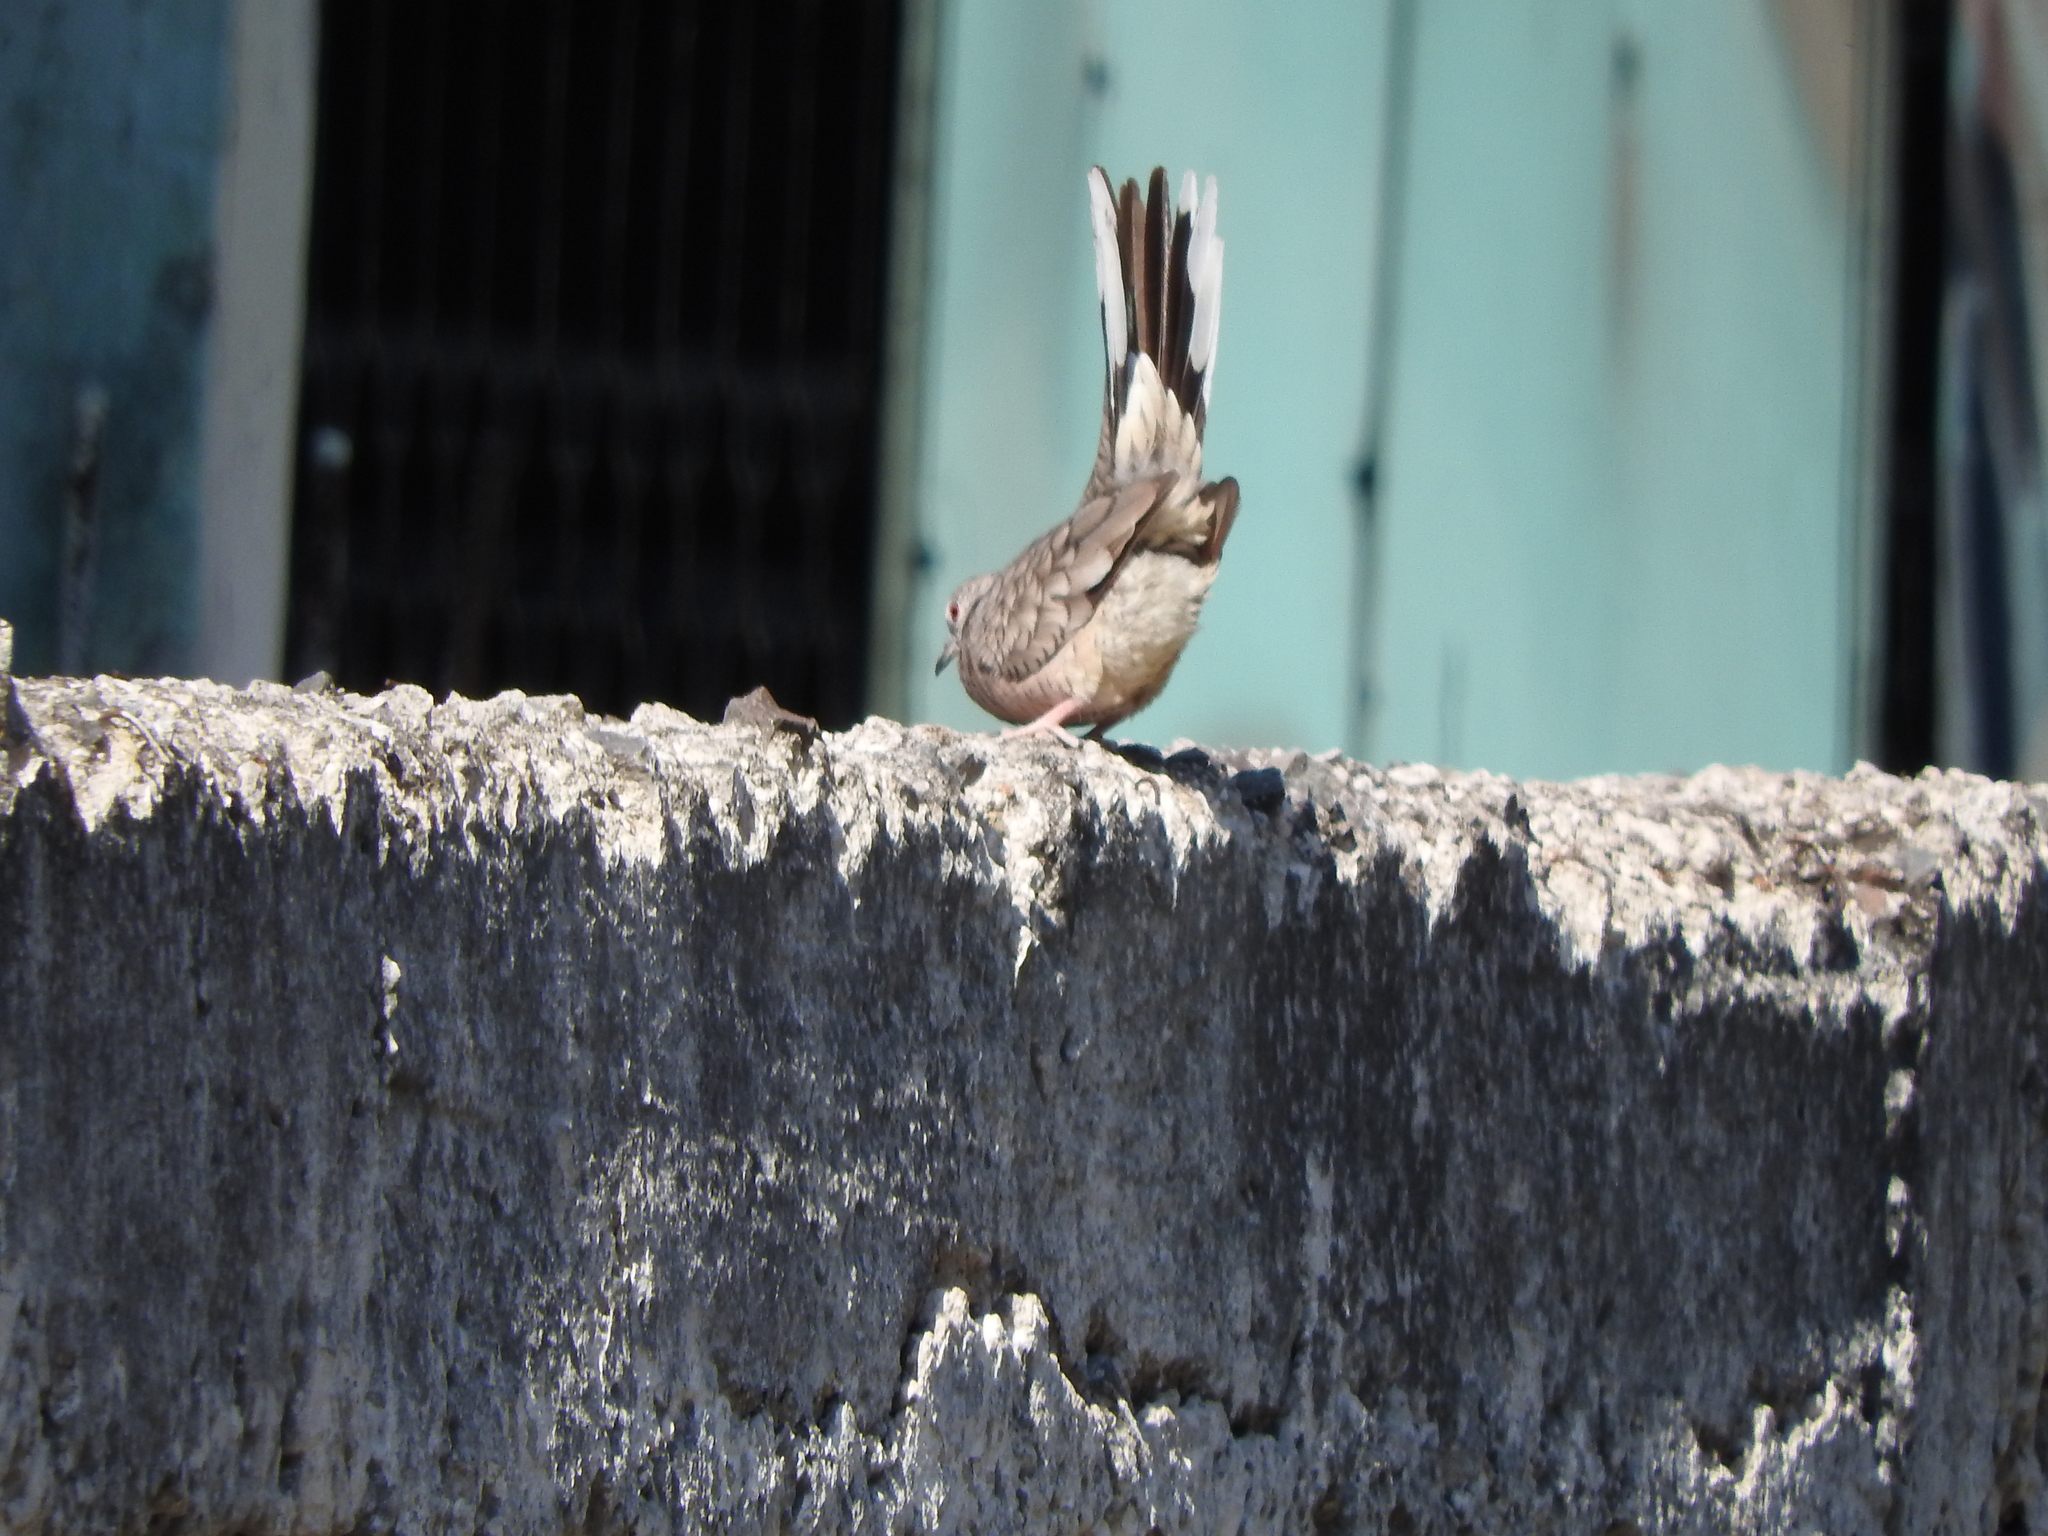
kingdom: Animalia
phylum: Chordata
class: Aves
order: Columbiformes
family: Columbidae
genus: Columbina
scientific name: Columbina inca
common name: Inca dove
